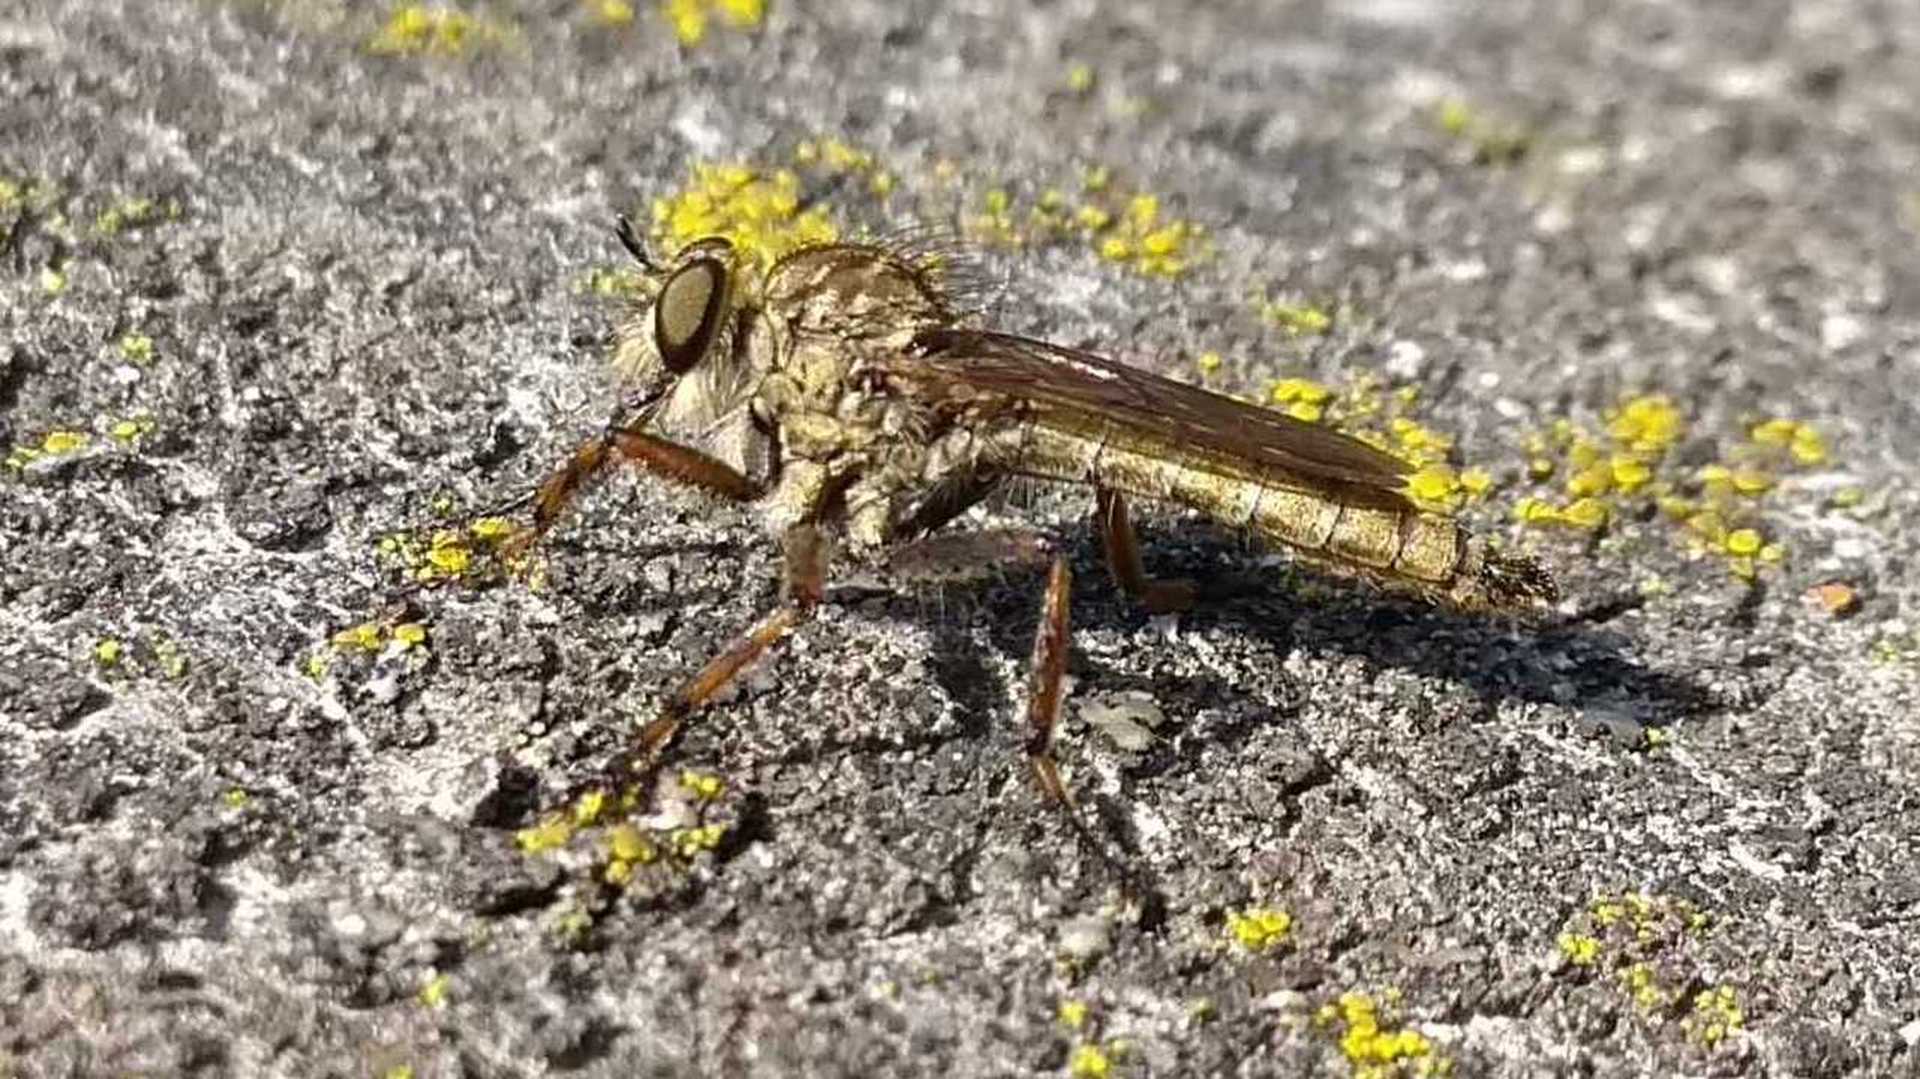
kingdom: Animalia
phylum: Arthropoda
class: Insecta
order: Diptera
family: Asilidae
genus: Epitriptus
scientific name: Epitriptus cingulatus
